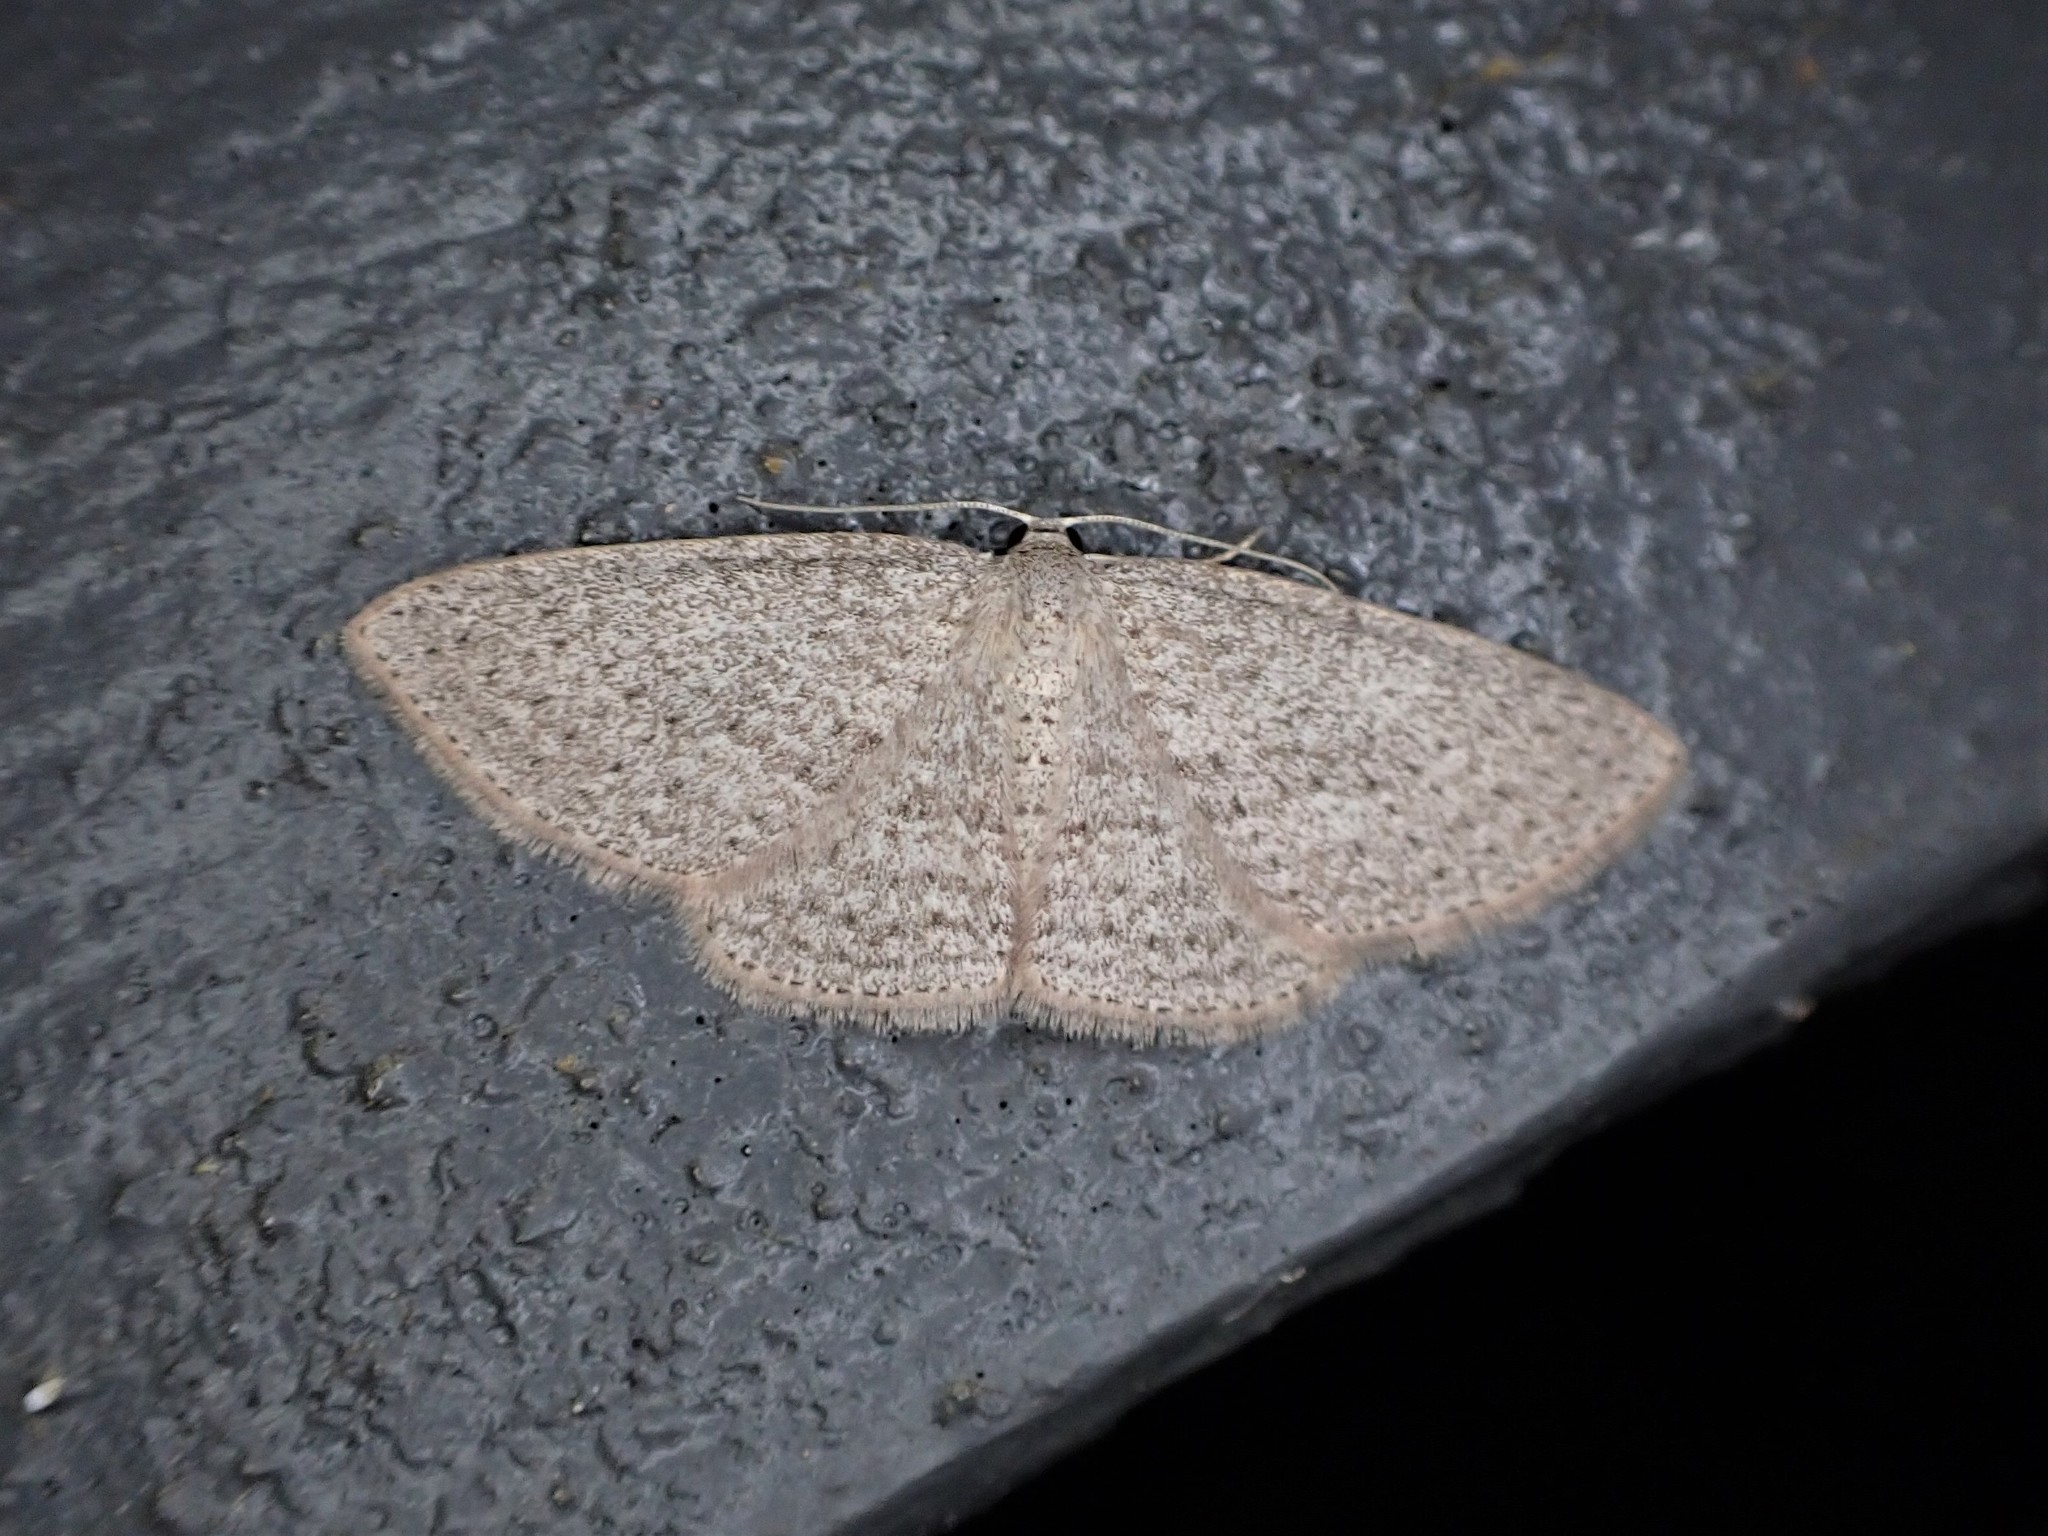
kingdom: Animalia
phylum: Arthropoda
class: Insecta
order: Lepidoptera
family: Geometridae
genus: Poecilasthena
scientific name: Poecilasthena schistaria
